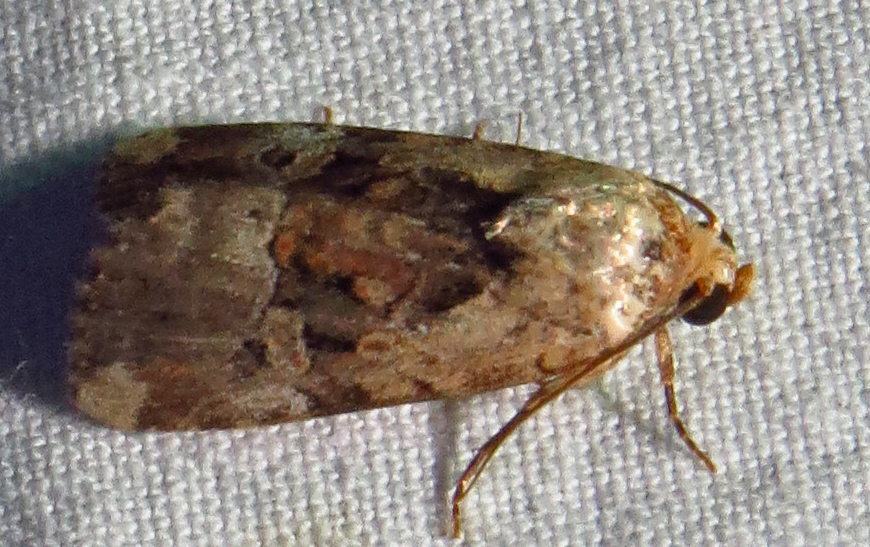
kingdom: Animalia
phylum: Arthropoda
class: Insecta
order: Lepidoptera
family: Noctuidae
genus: Elaphria
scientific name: Elaphria chalcedonia
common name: Chalcedony midget
